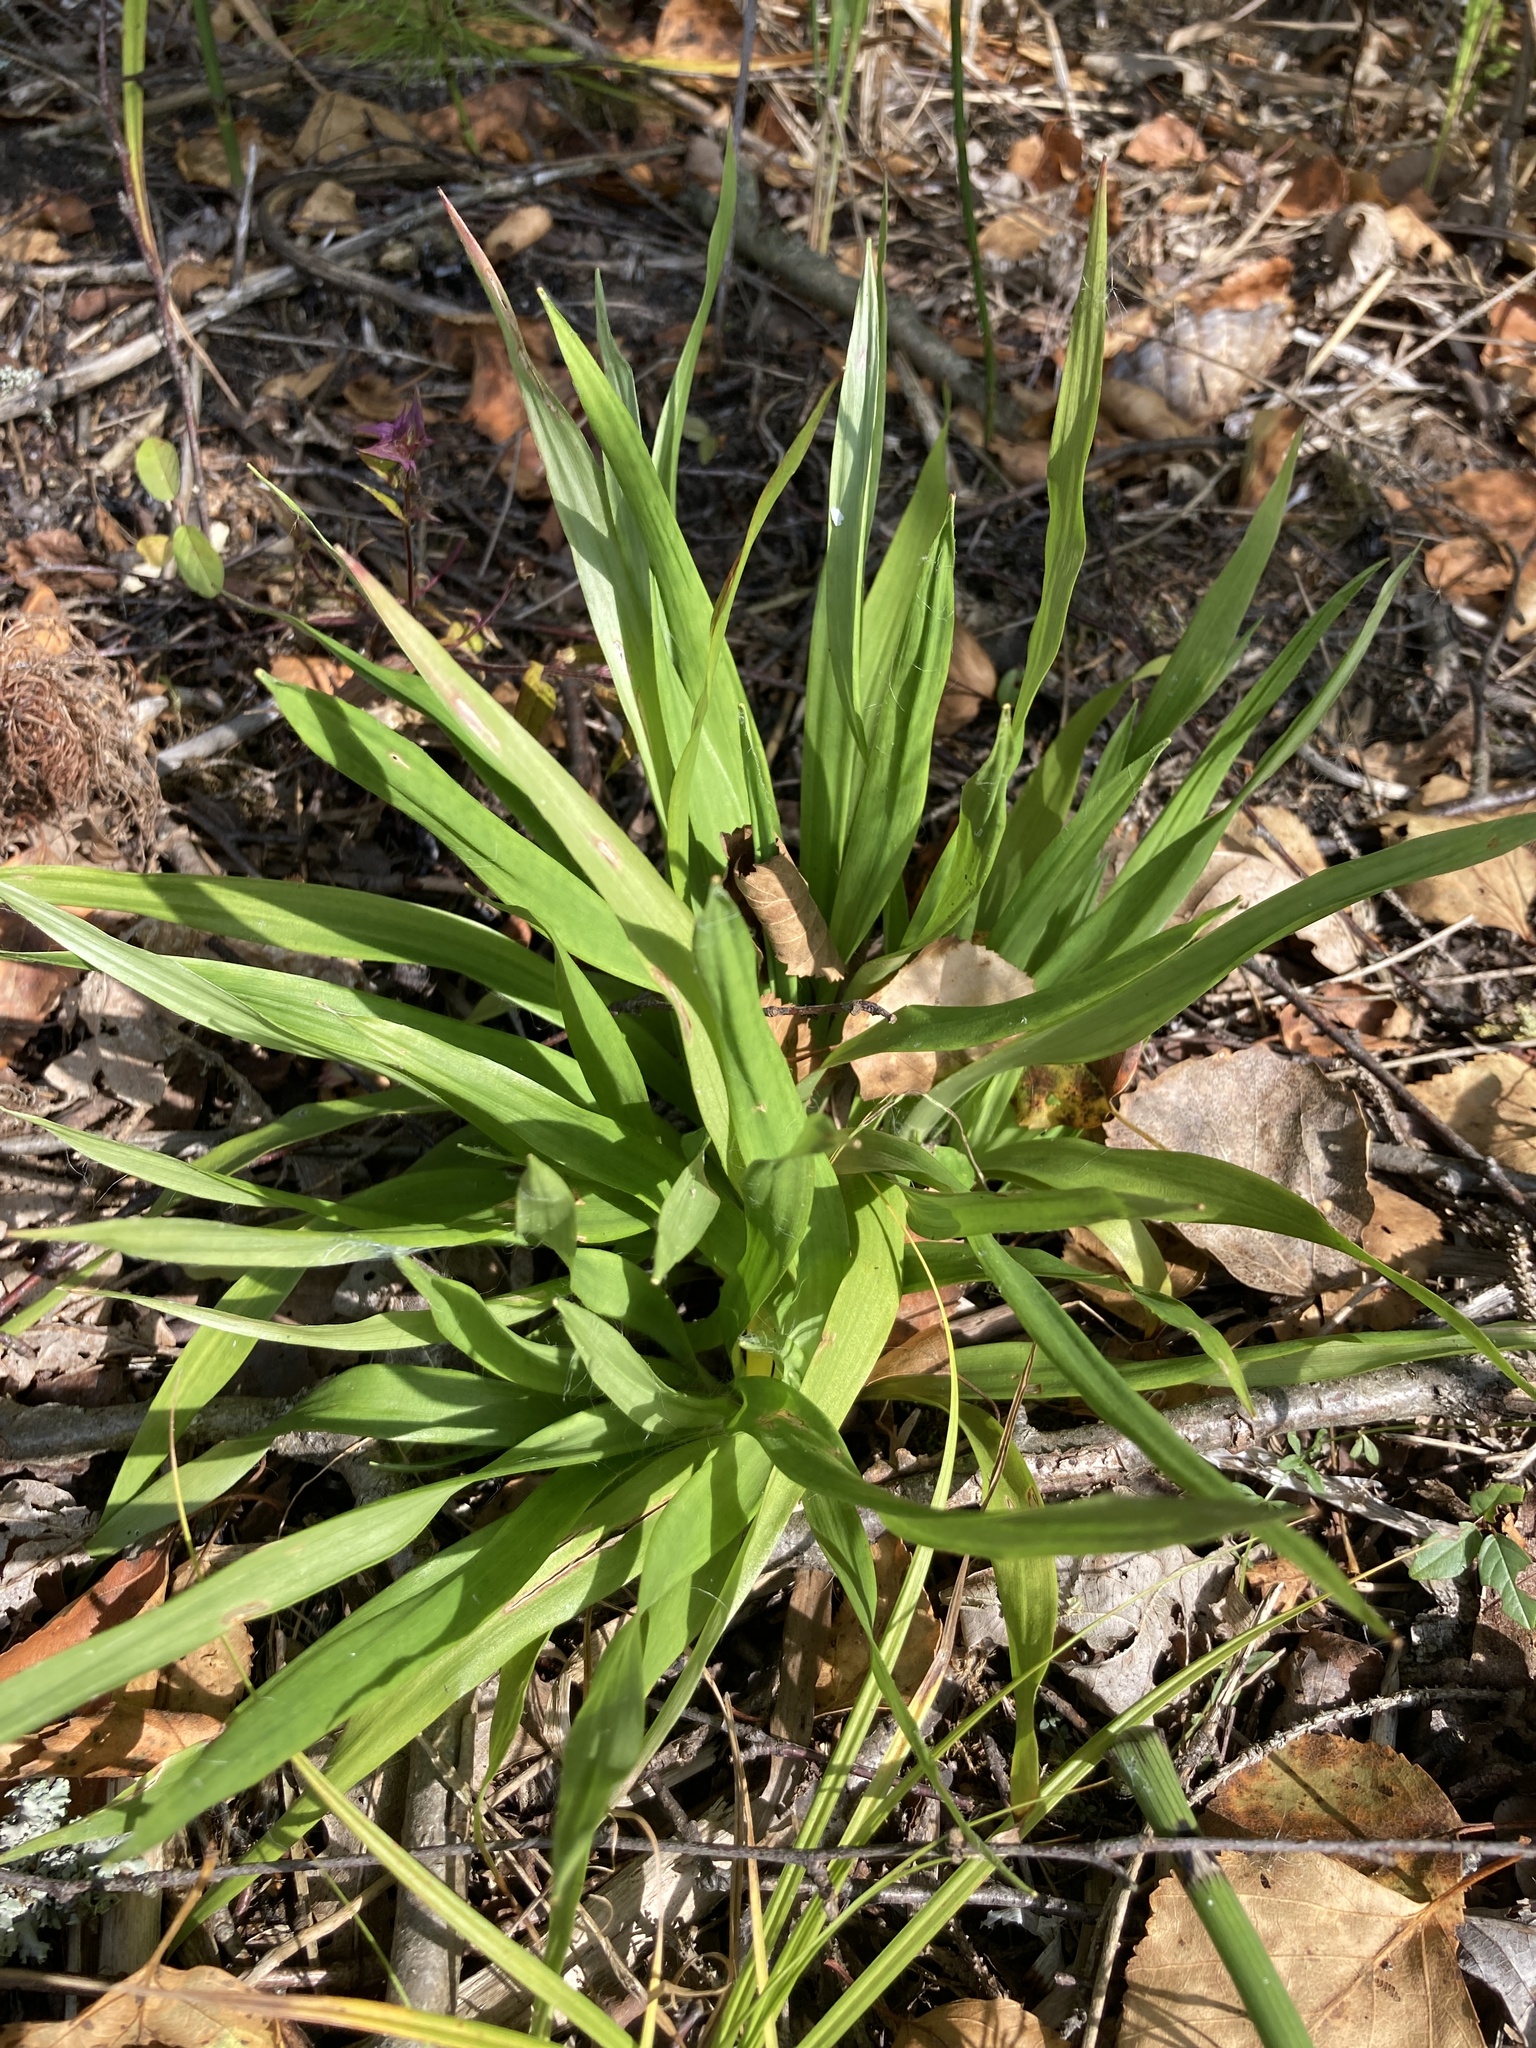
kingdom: Plantae
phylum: Tracheophyta
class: Liliopsida
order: Poales
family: Juncaceae
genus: Luzula
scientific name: Luzula pilosa
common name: Hairy wood-rush
